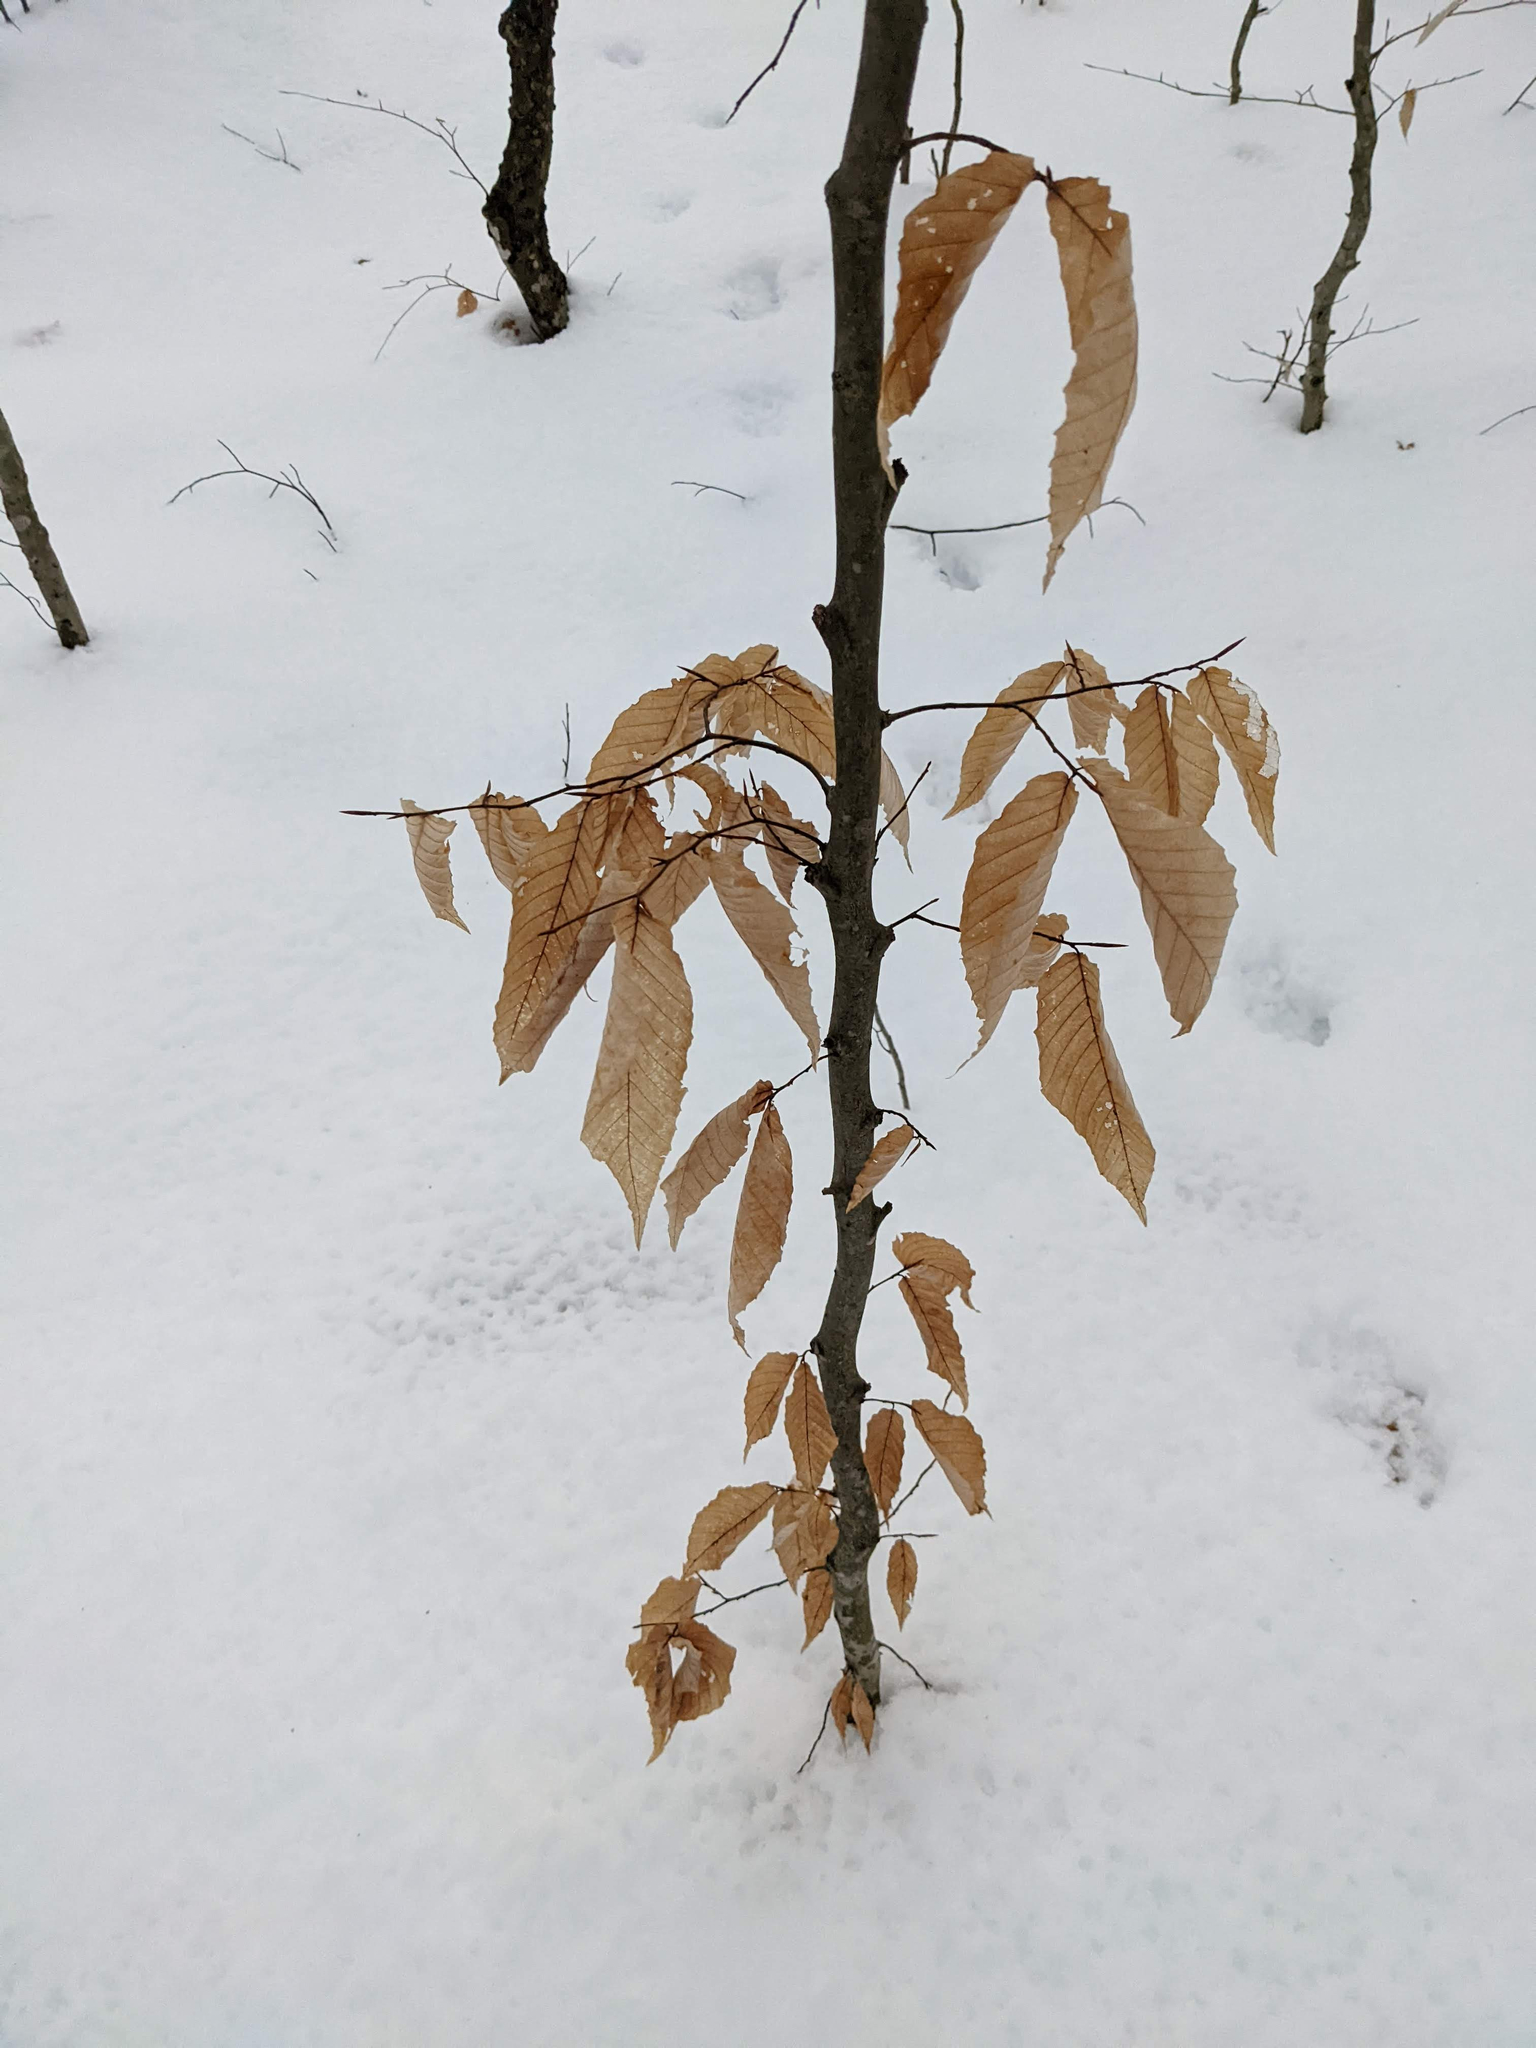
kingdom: Plantae
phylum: Tracheophyta
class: Magnoliopsida
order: Fagales
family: Fagaceae
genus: Fagus
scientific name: Fagus grandifolia
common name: American beech
